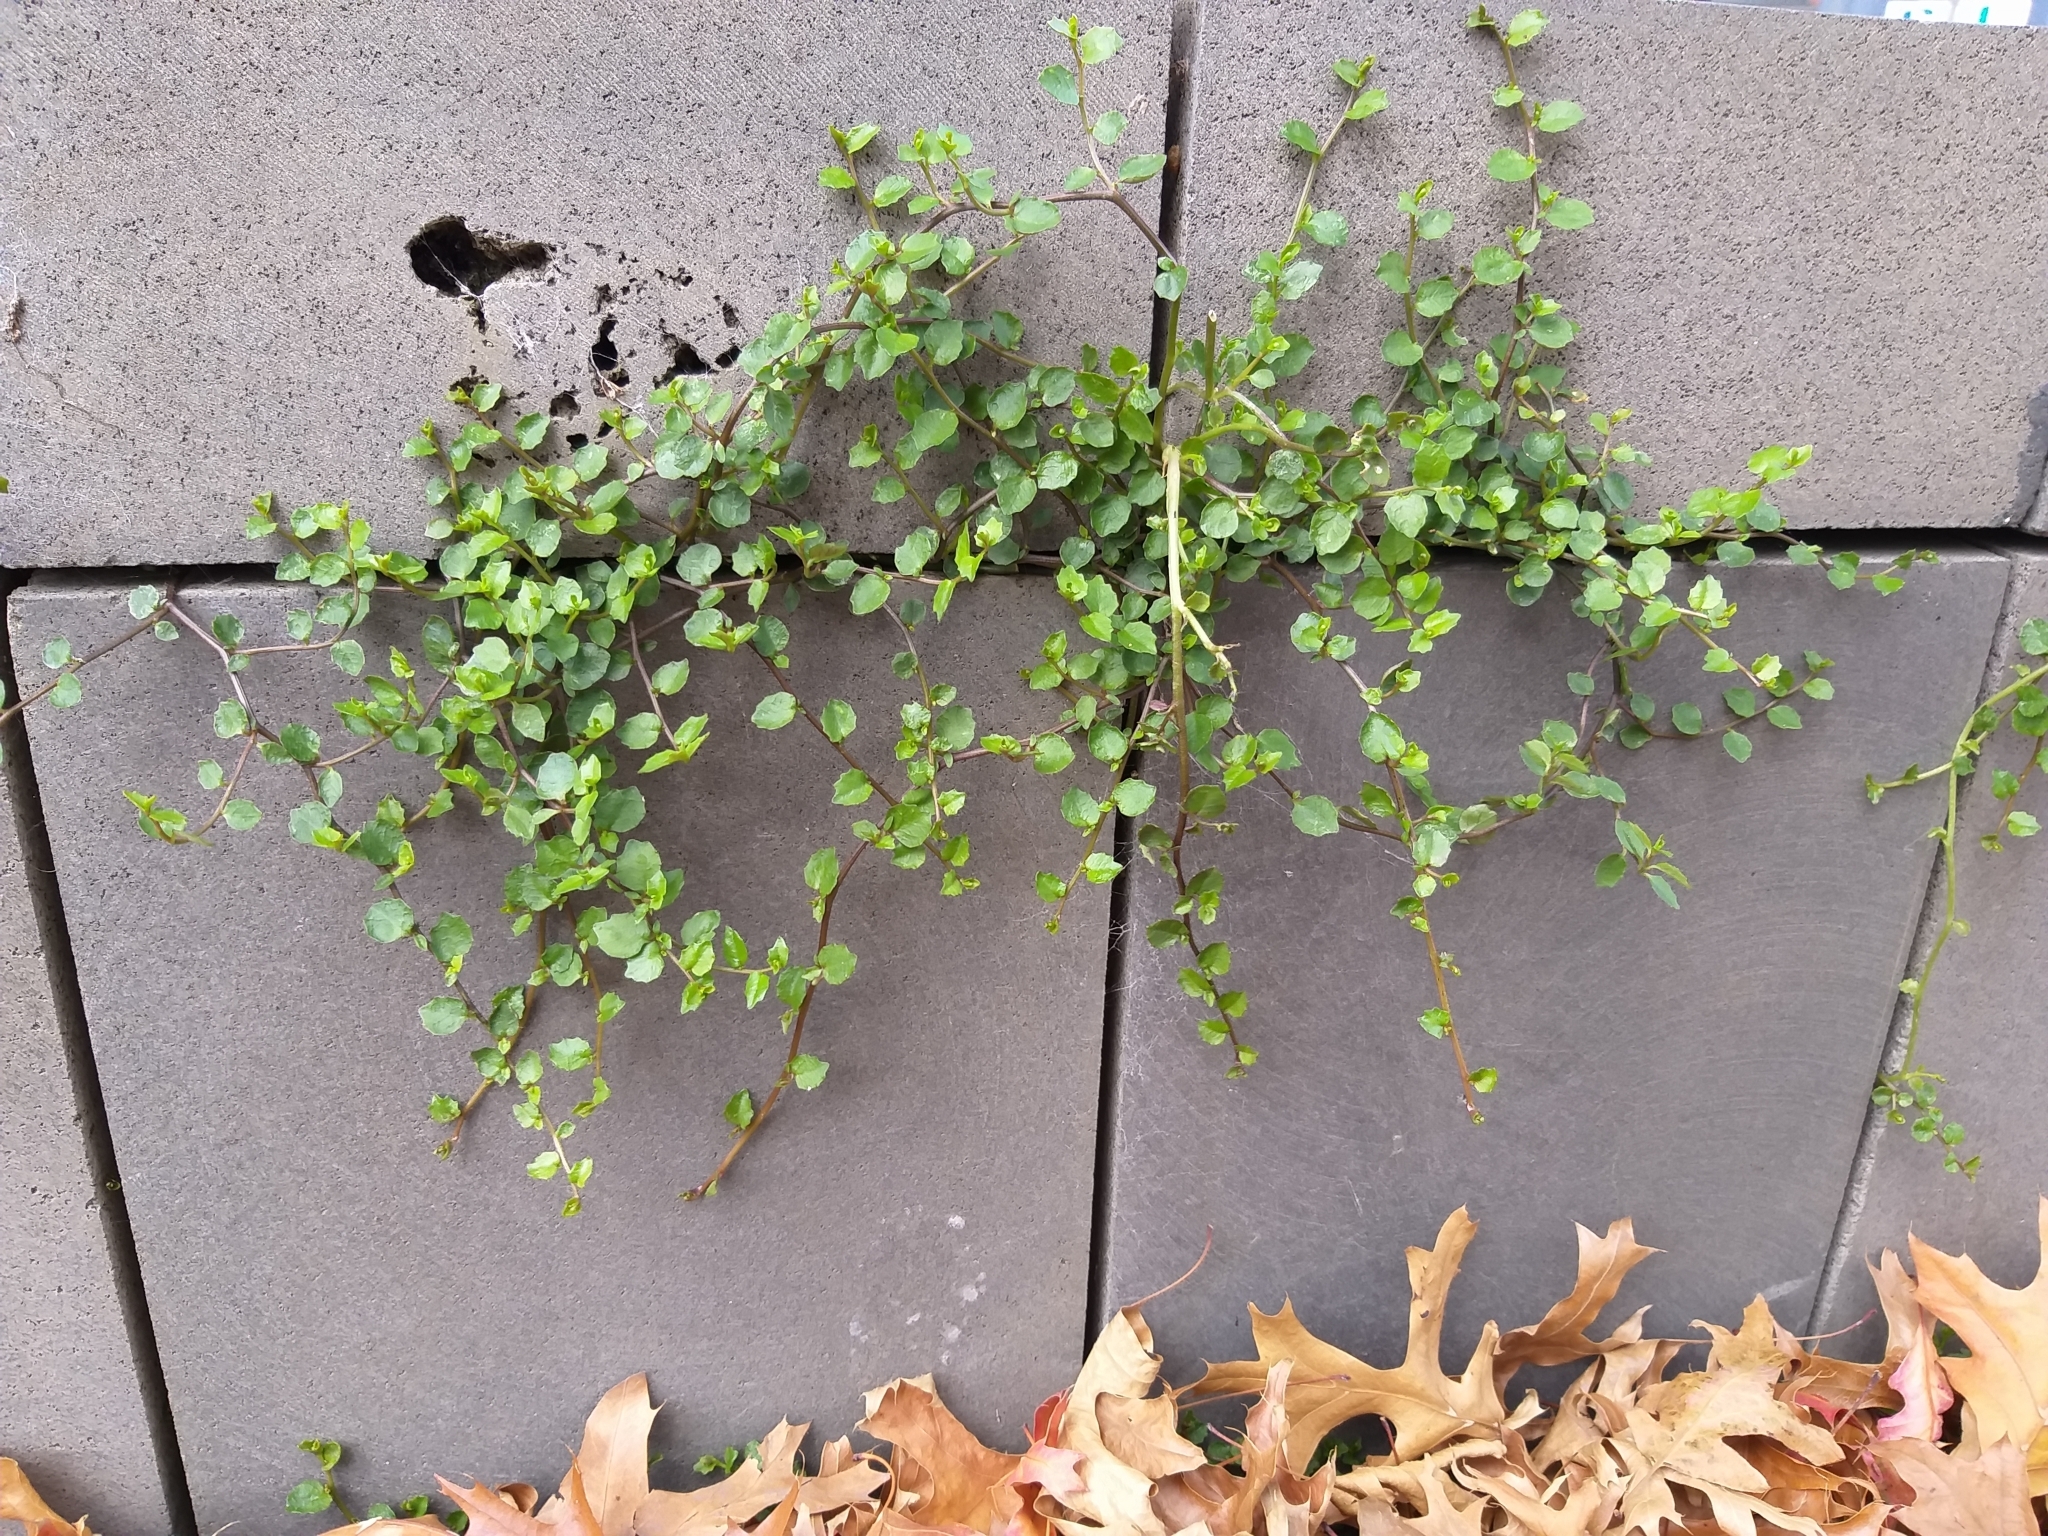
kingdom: Plantae
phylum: Tracheophyta
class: Magnoliopsida
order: Asterales
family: Campanulaceae
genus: Lobelia
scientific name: Lobelia angulata
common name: Lawn lobelia
